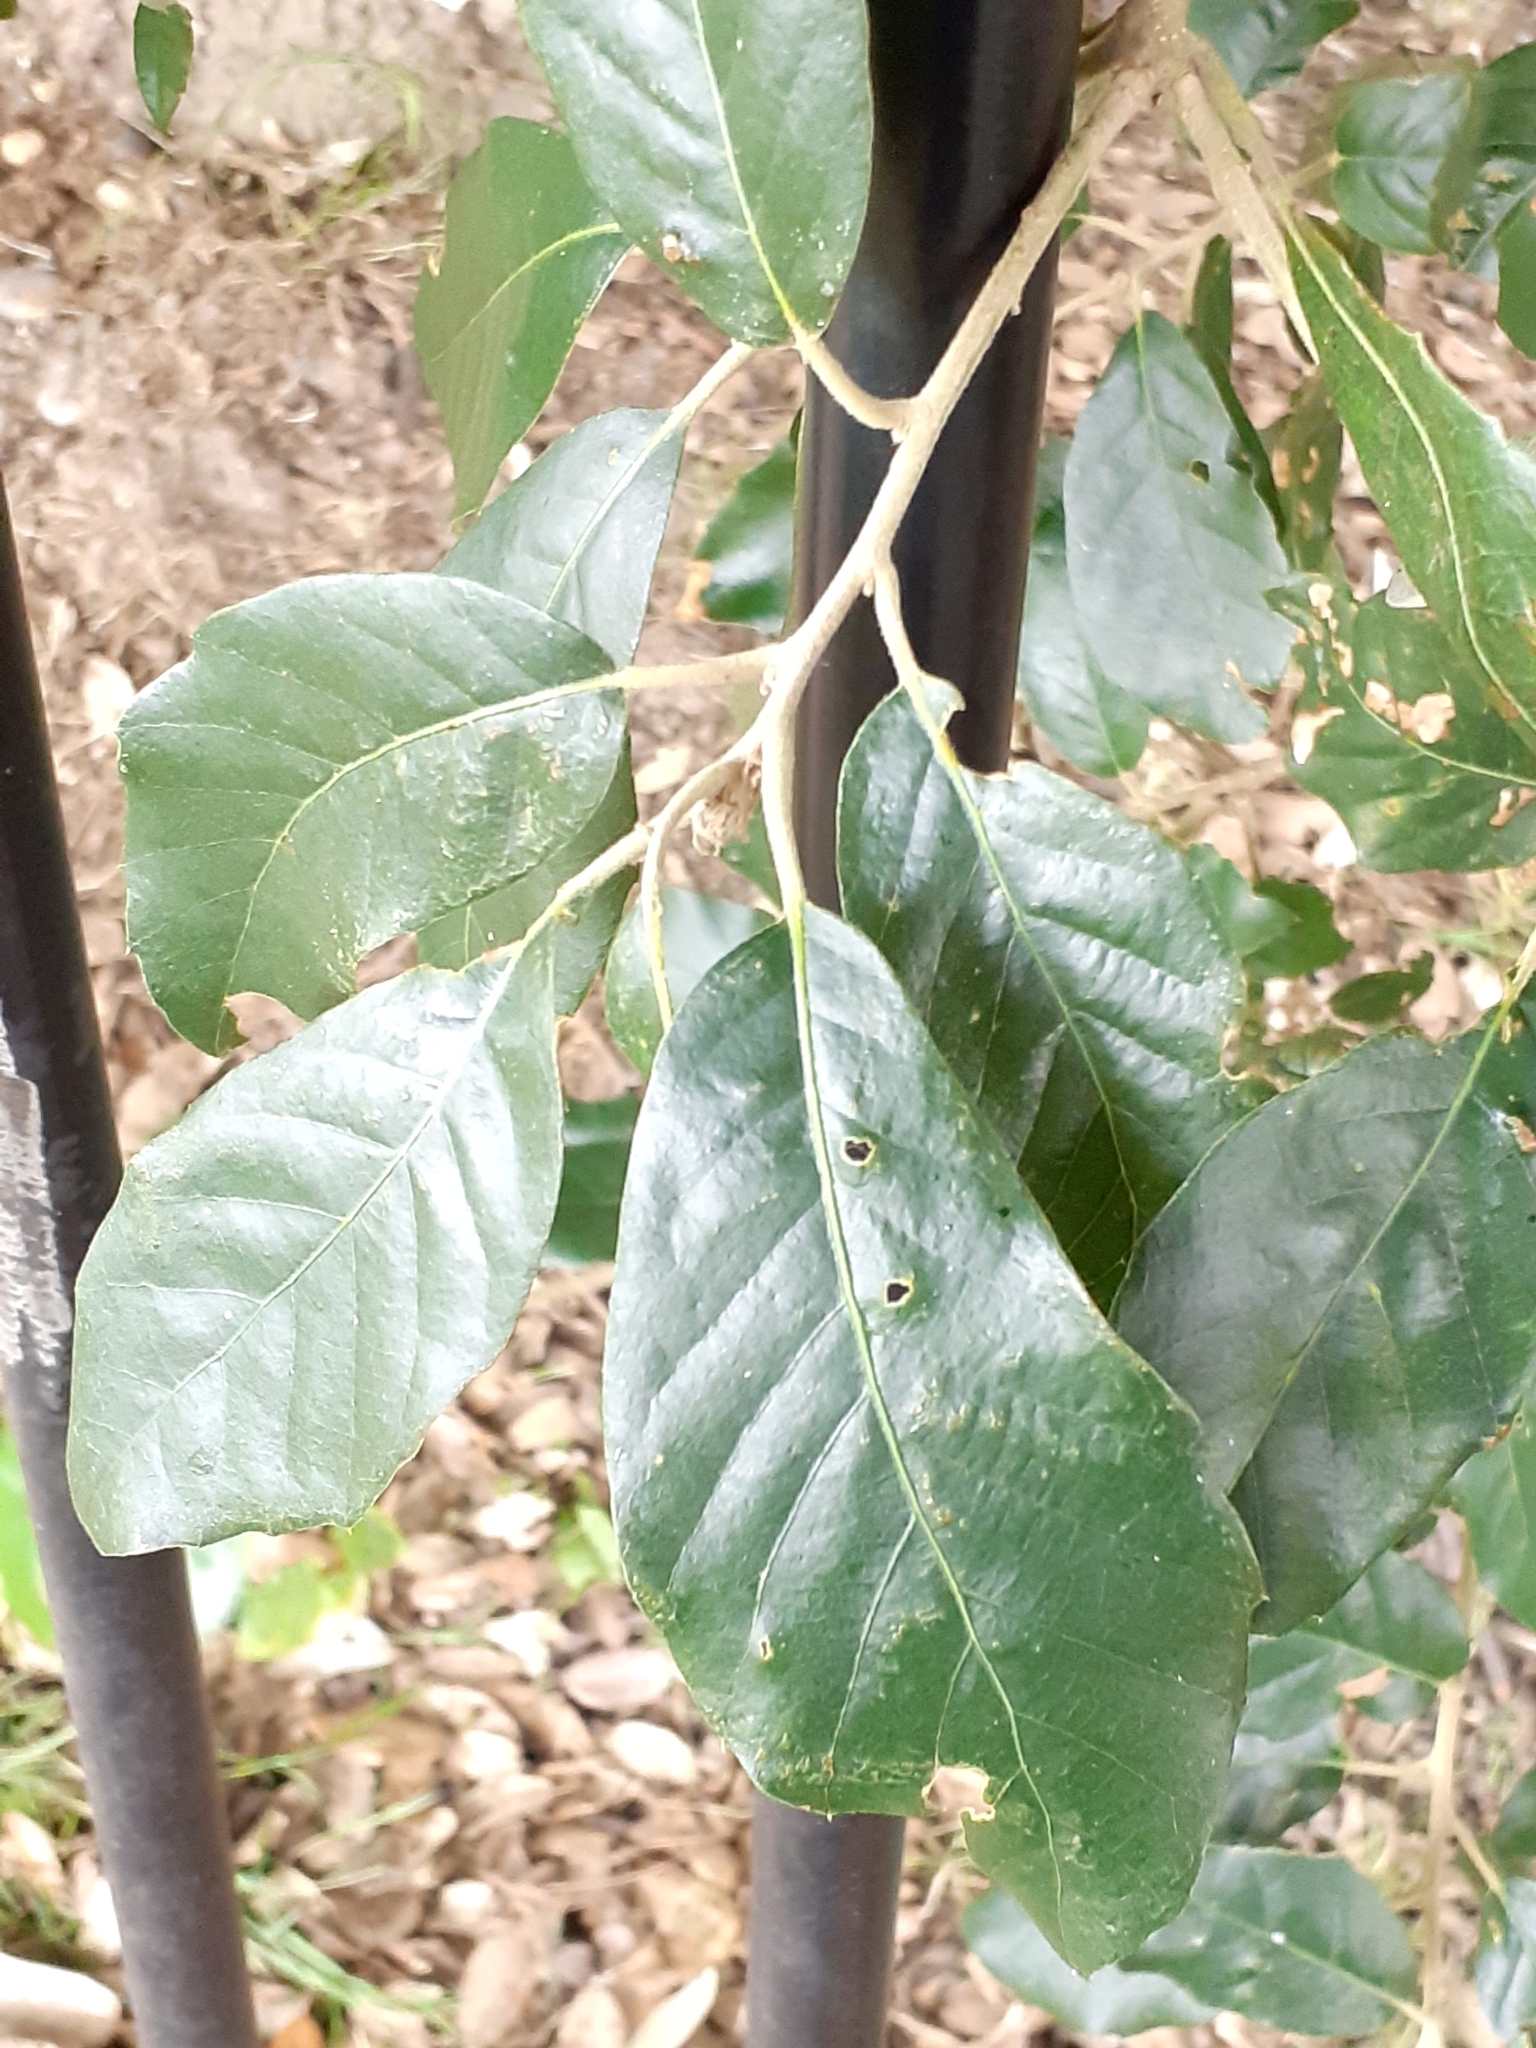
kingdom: Plantae
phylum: Tracheophyta
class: Magnoliopsida
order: Fagales
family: Fagaceae
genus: Quercus
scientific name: Quercus ilex
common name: Evergreen oak
